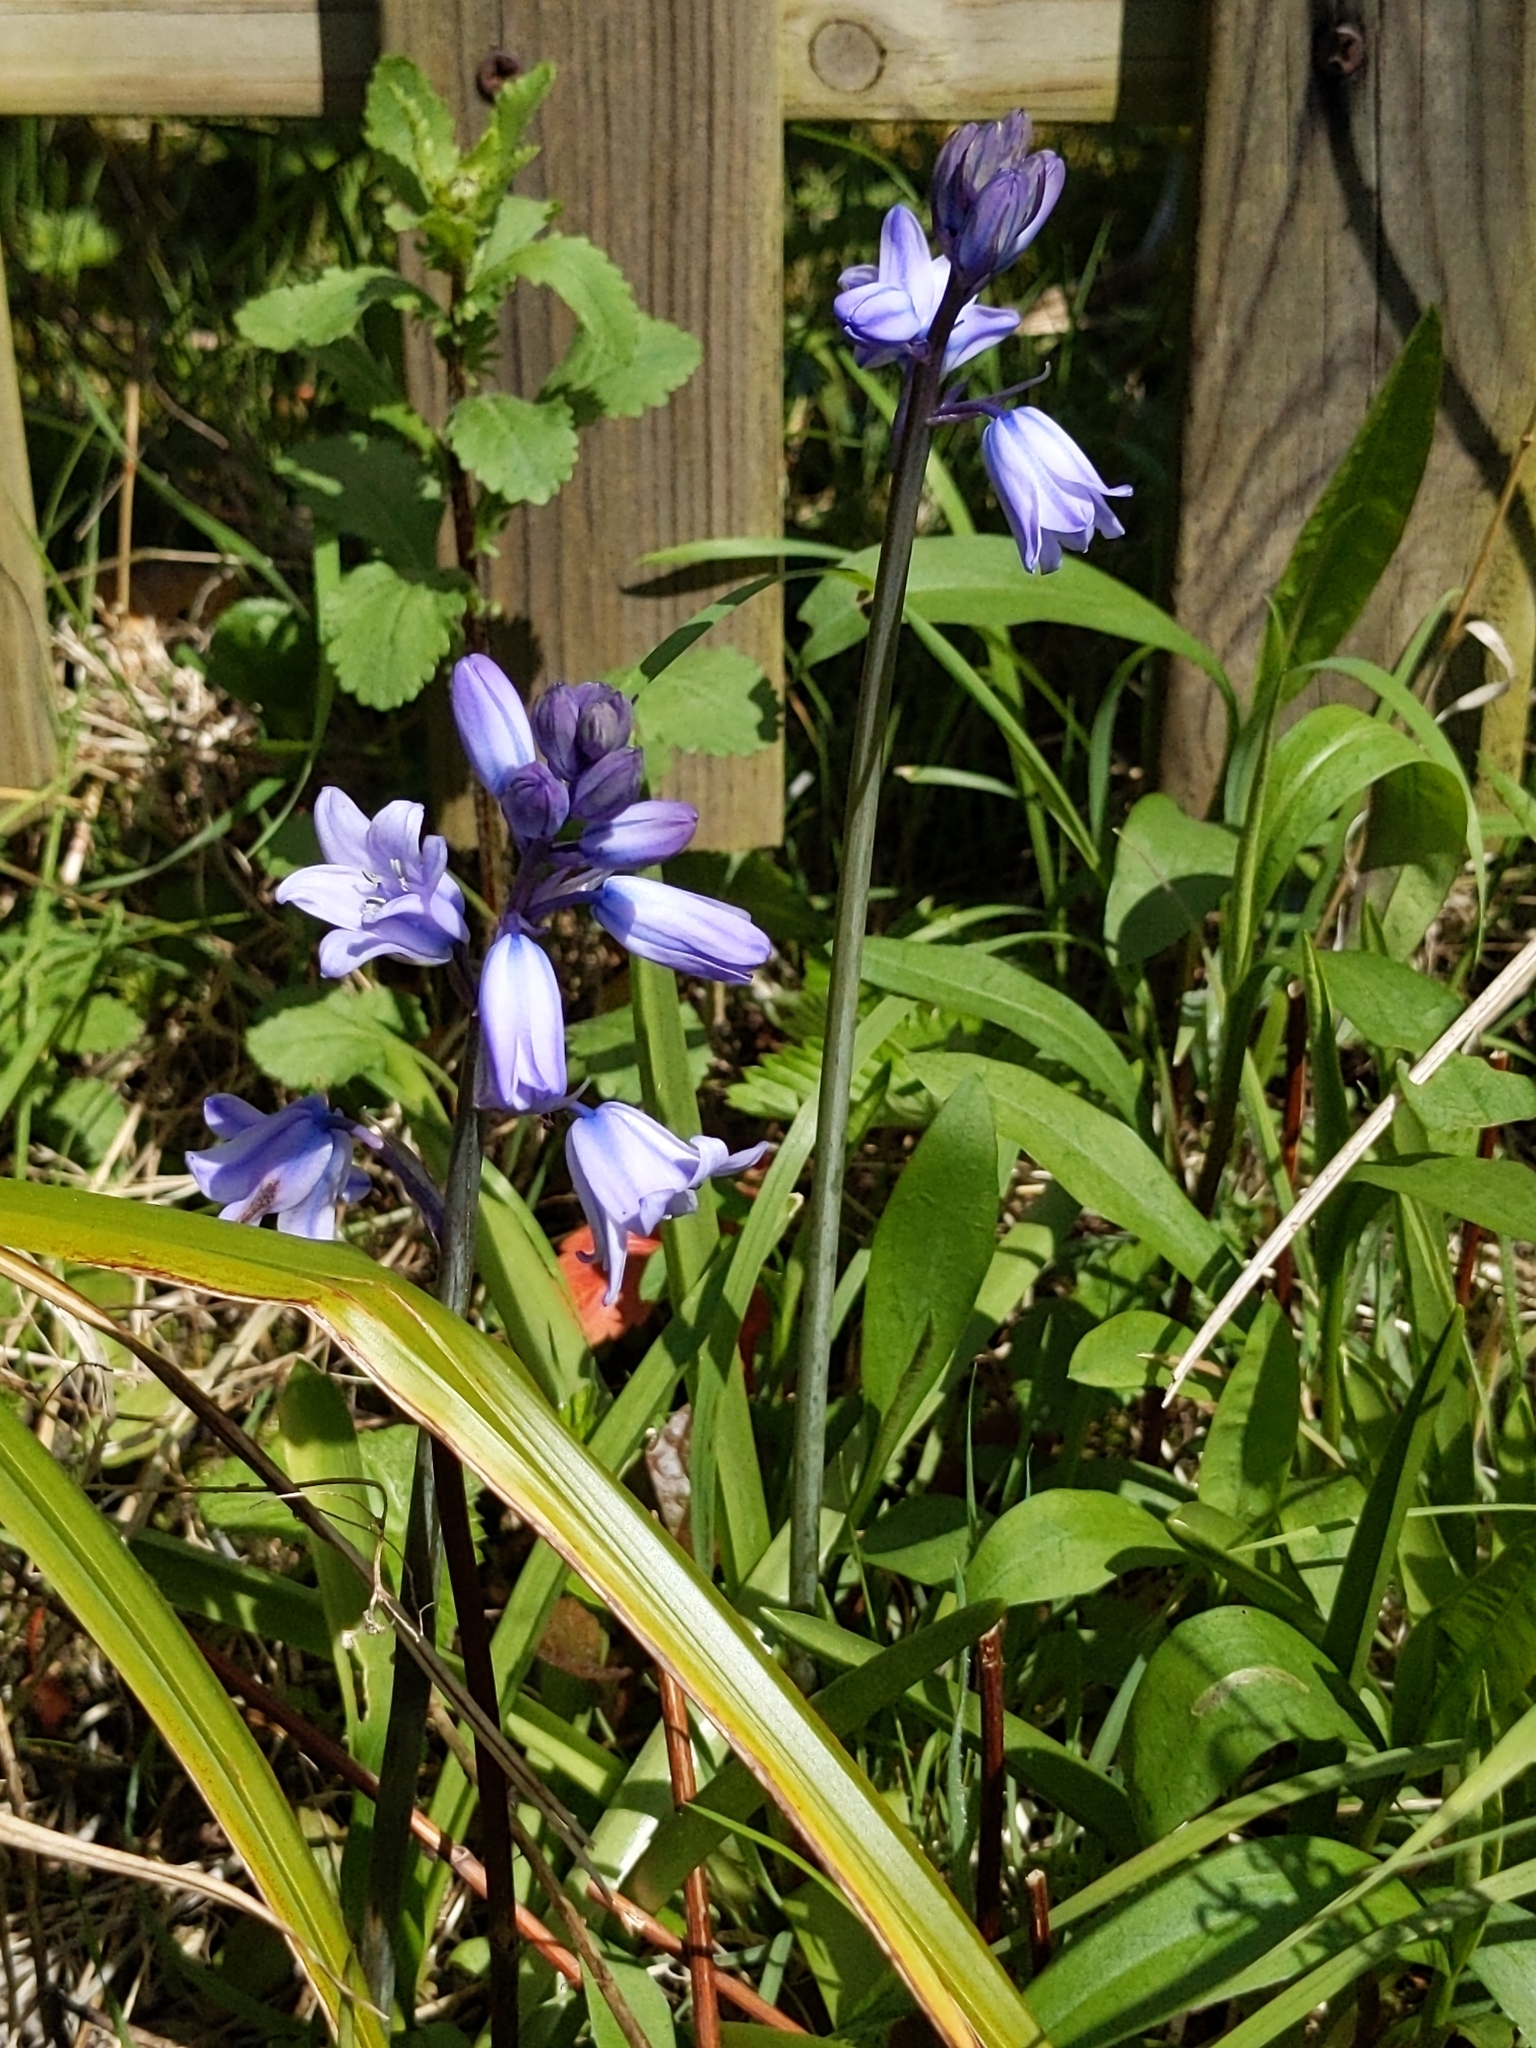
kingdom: Plantae
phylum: Tracheophyta
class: Liliopsida
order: Asparagales
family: Asparagaceae
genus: Hyacinthoides
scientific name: Hyacinthoides hispanica
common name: Spanish bluebell
